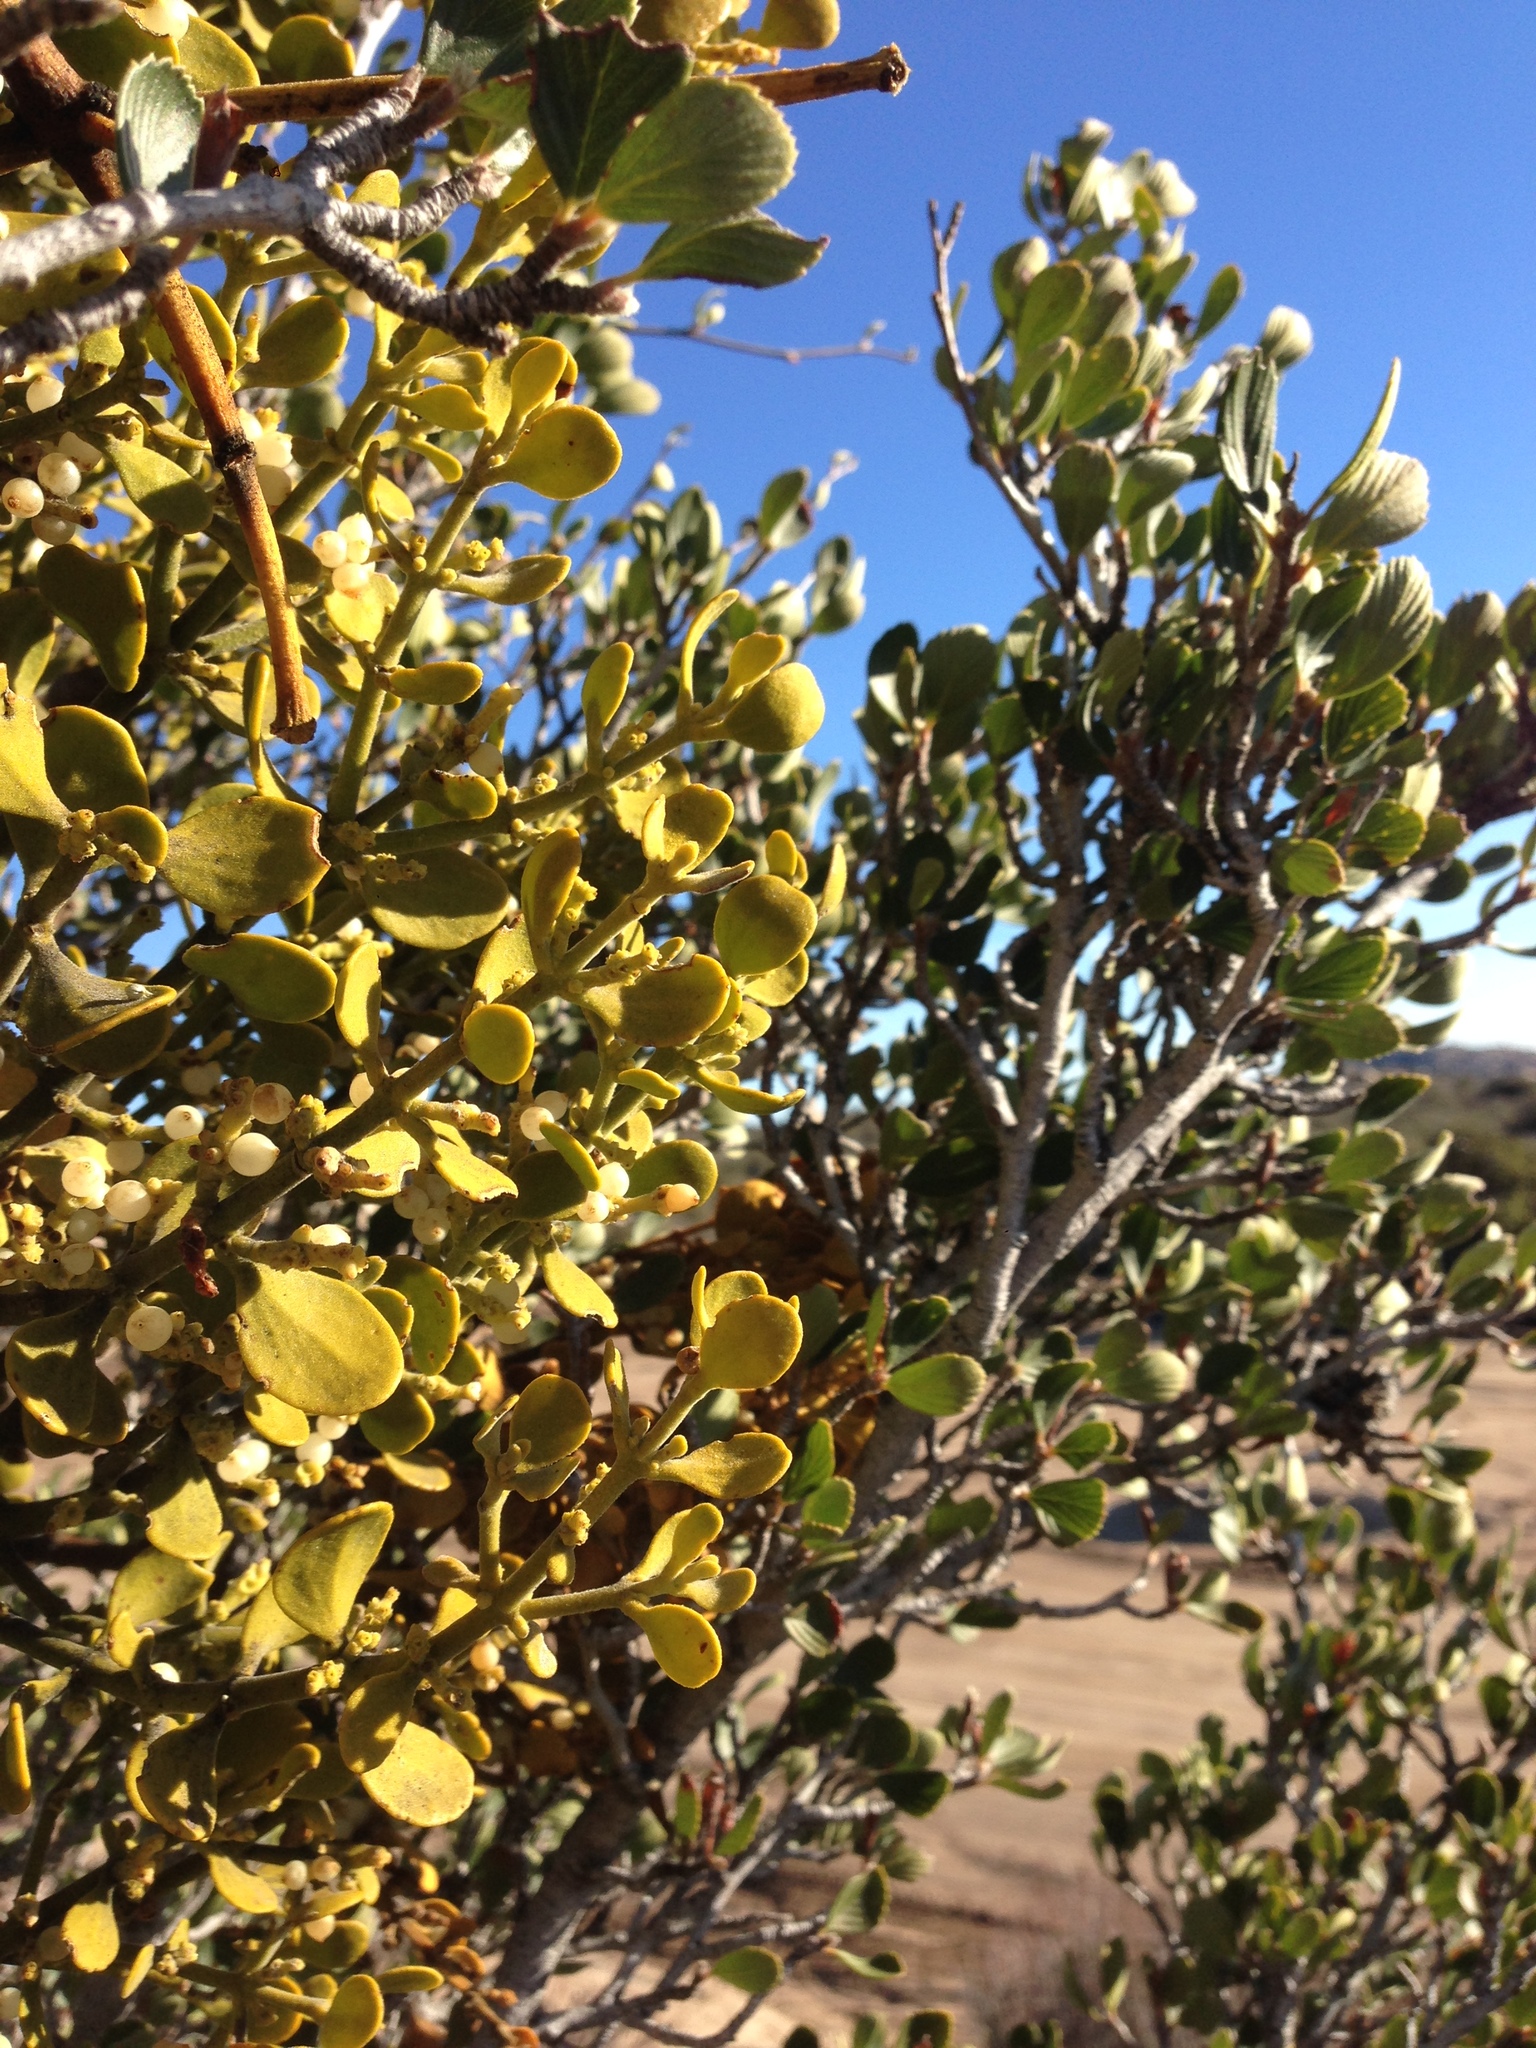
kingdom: Plantae
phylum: Tracheophyta
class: Magnoliopsida
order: Rosales
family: Rosaceae
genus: Cercocarpus
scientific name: Cercocarpus betuloides
